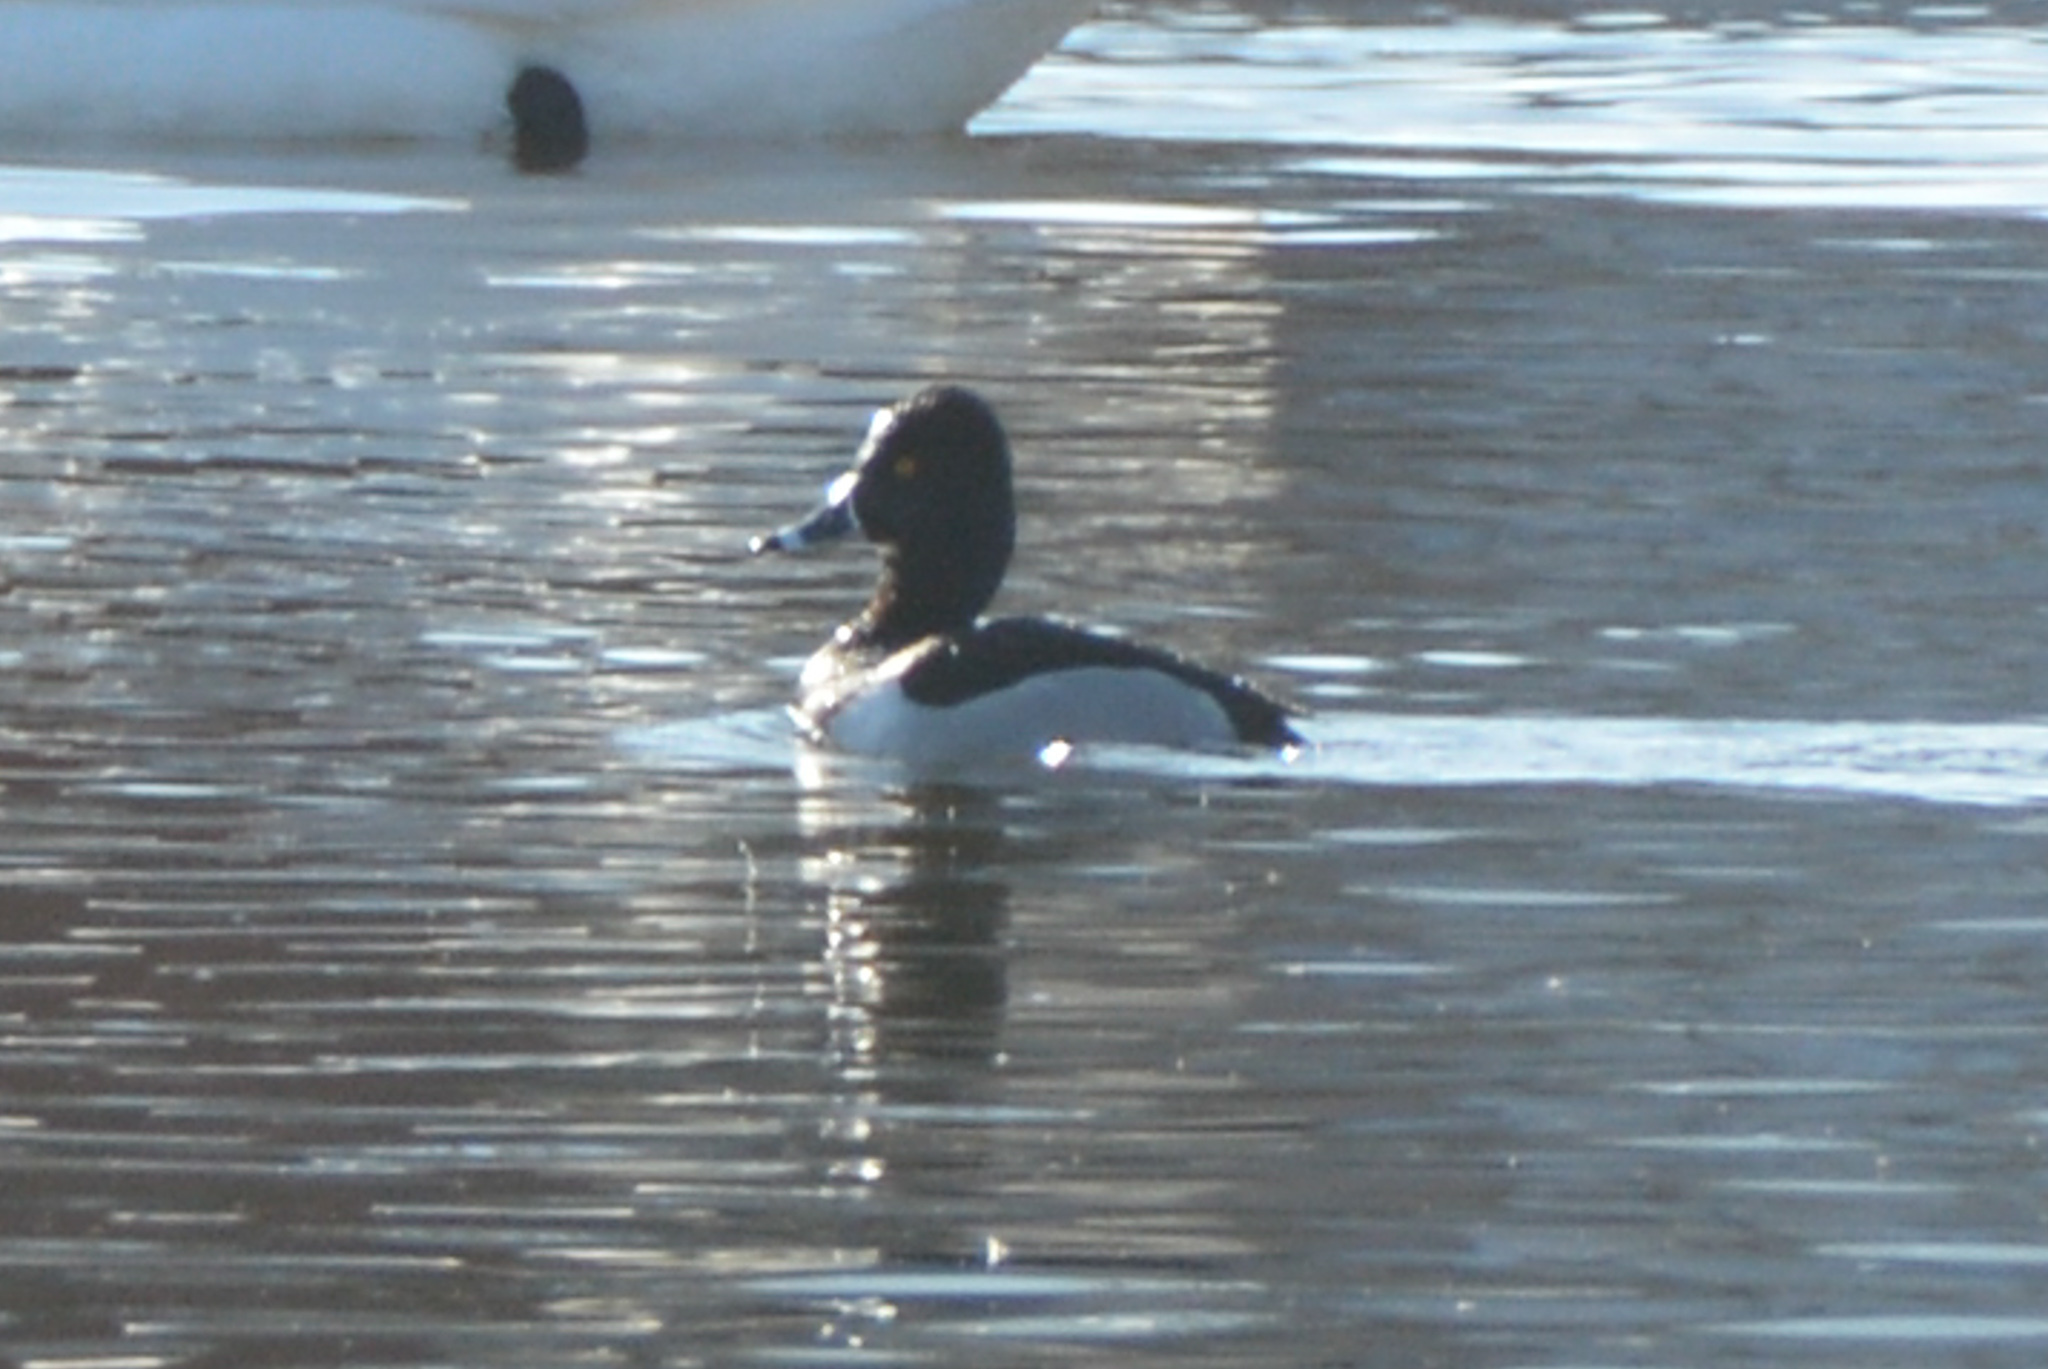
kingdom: Animalia
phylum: Chordata
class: Aves
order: Anseriformes
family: Anatidae
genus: Aythya
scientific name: Aythya collaris
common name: Ring-necked duck
